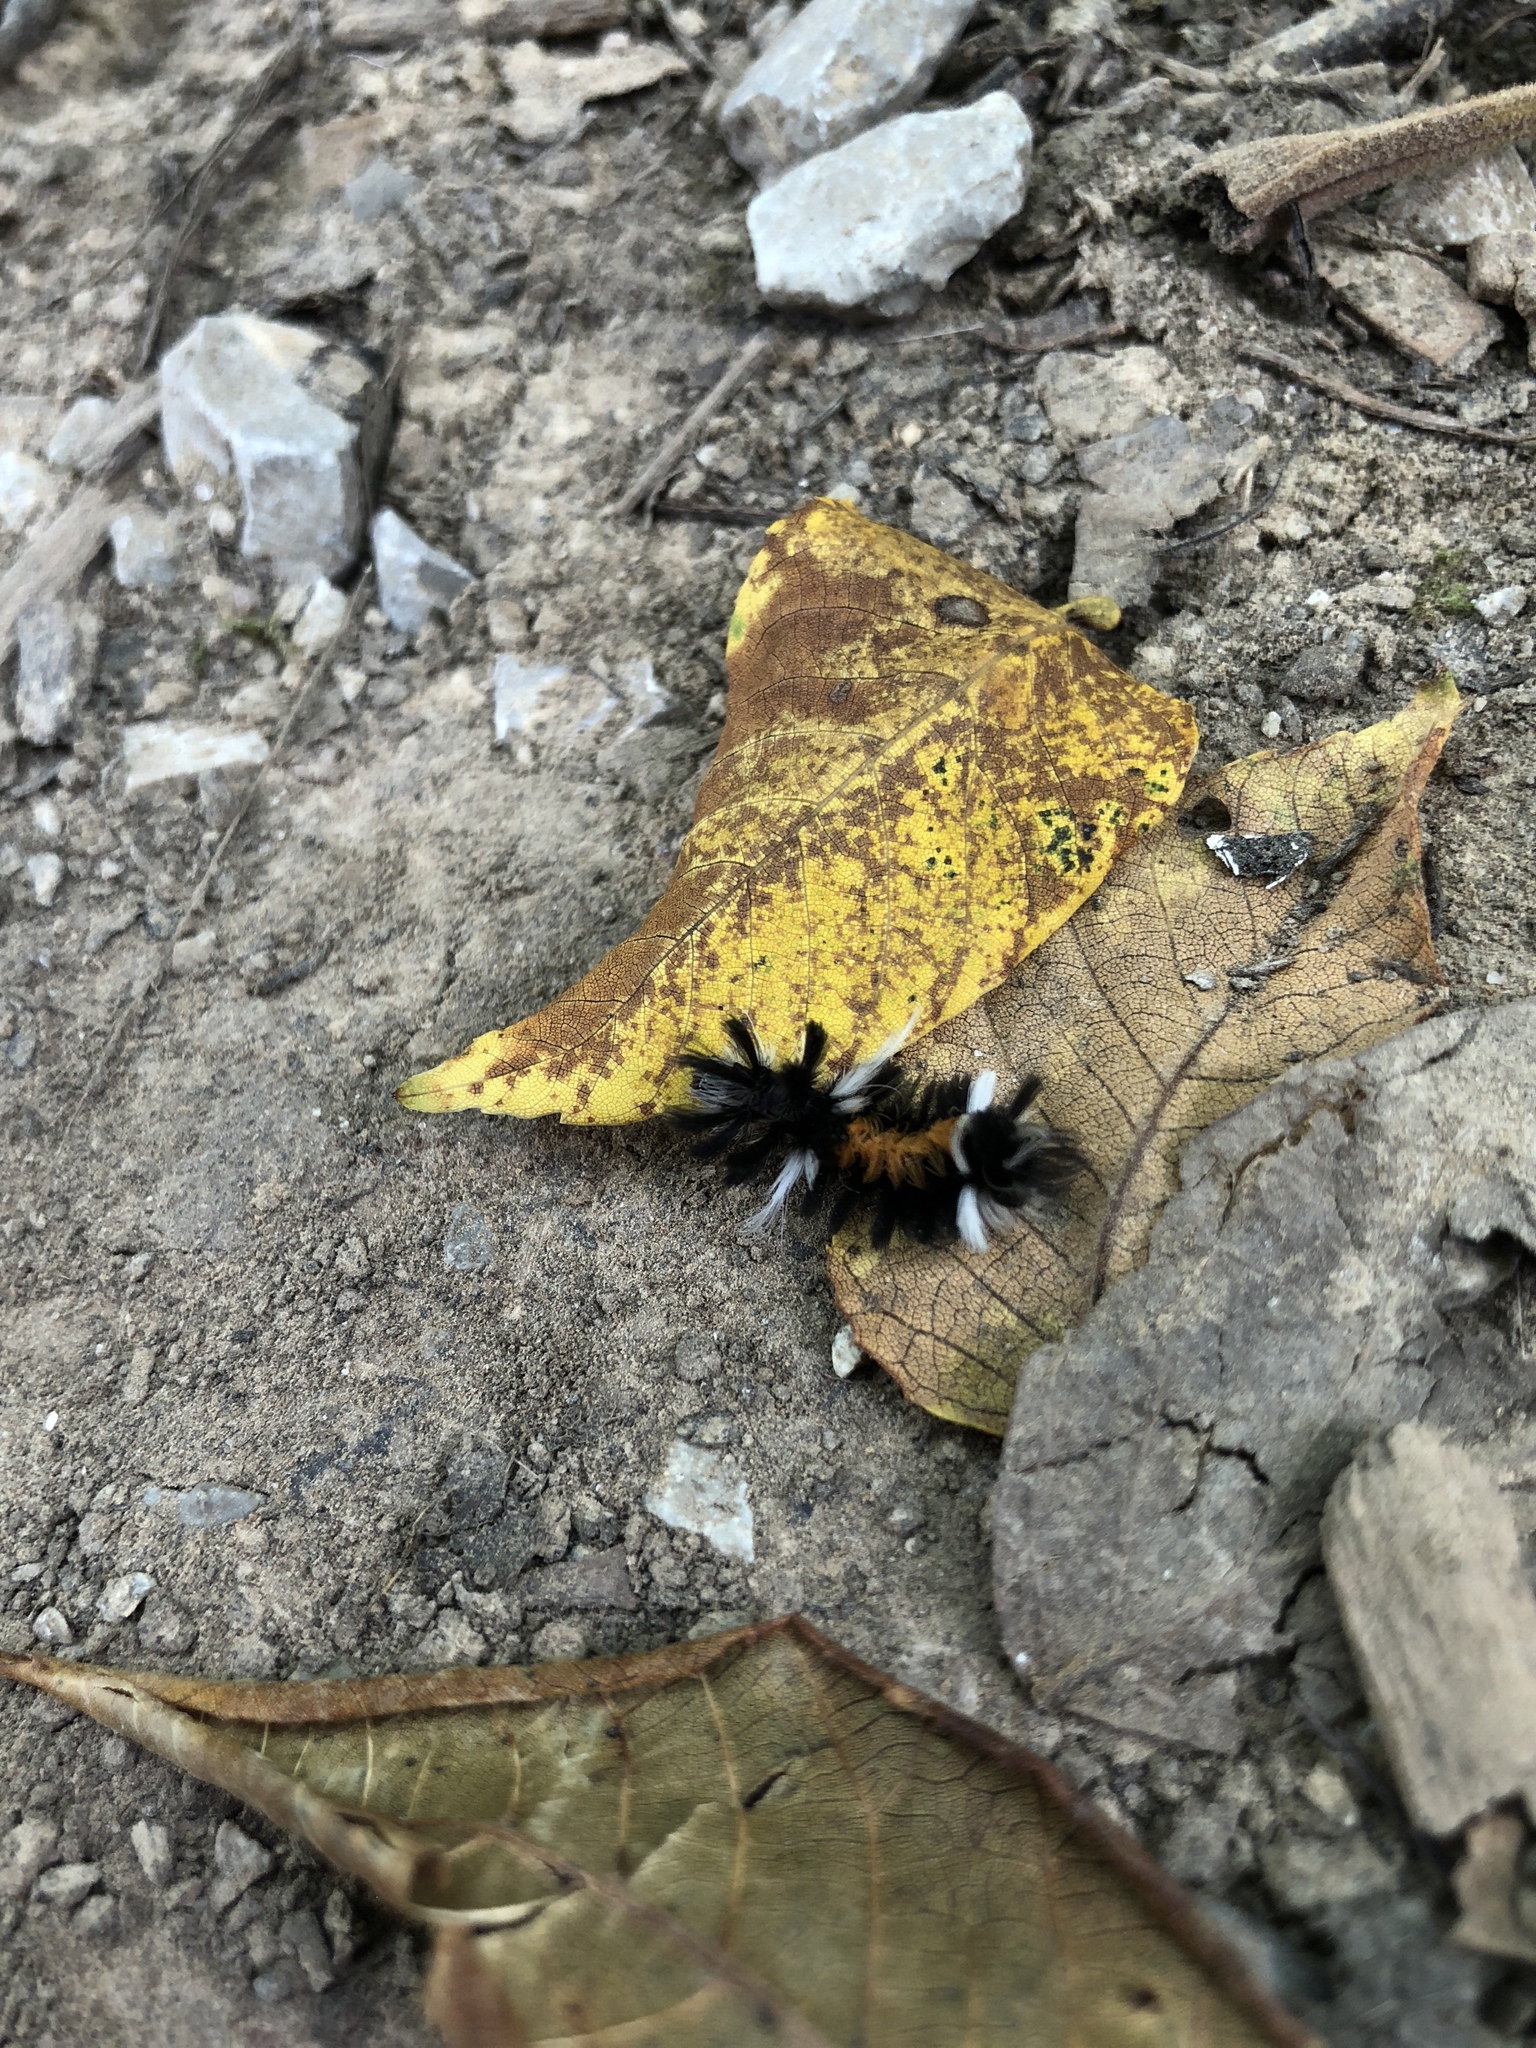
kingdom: Animalia
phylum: Arthropoda
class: Insecta
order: Lepidoptera
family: Erebidae
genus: Euchaetes
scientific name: Euchaetes egle
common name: Milkweed tussock moth
